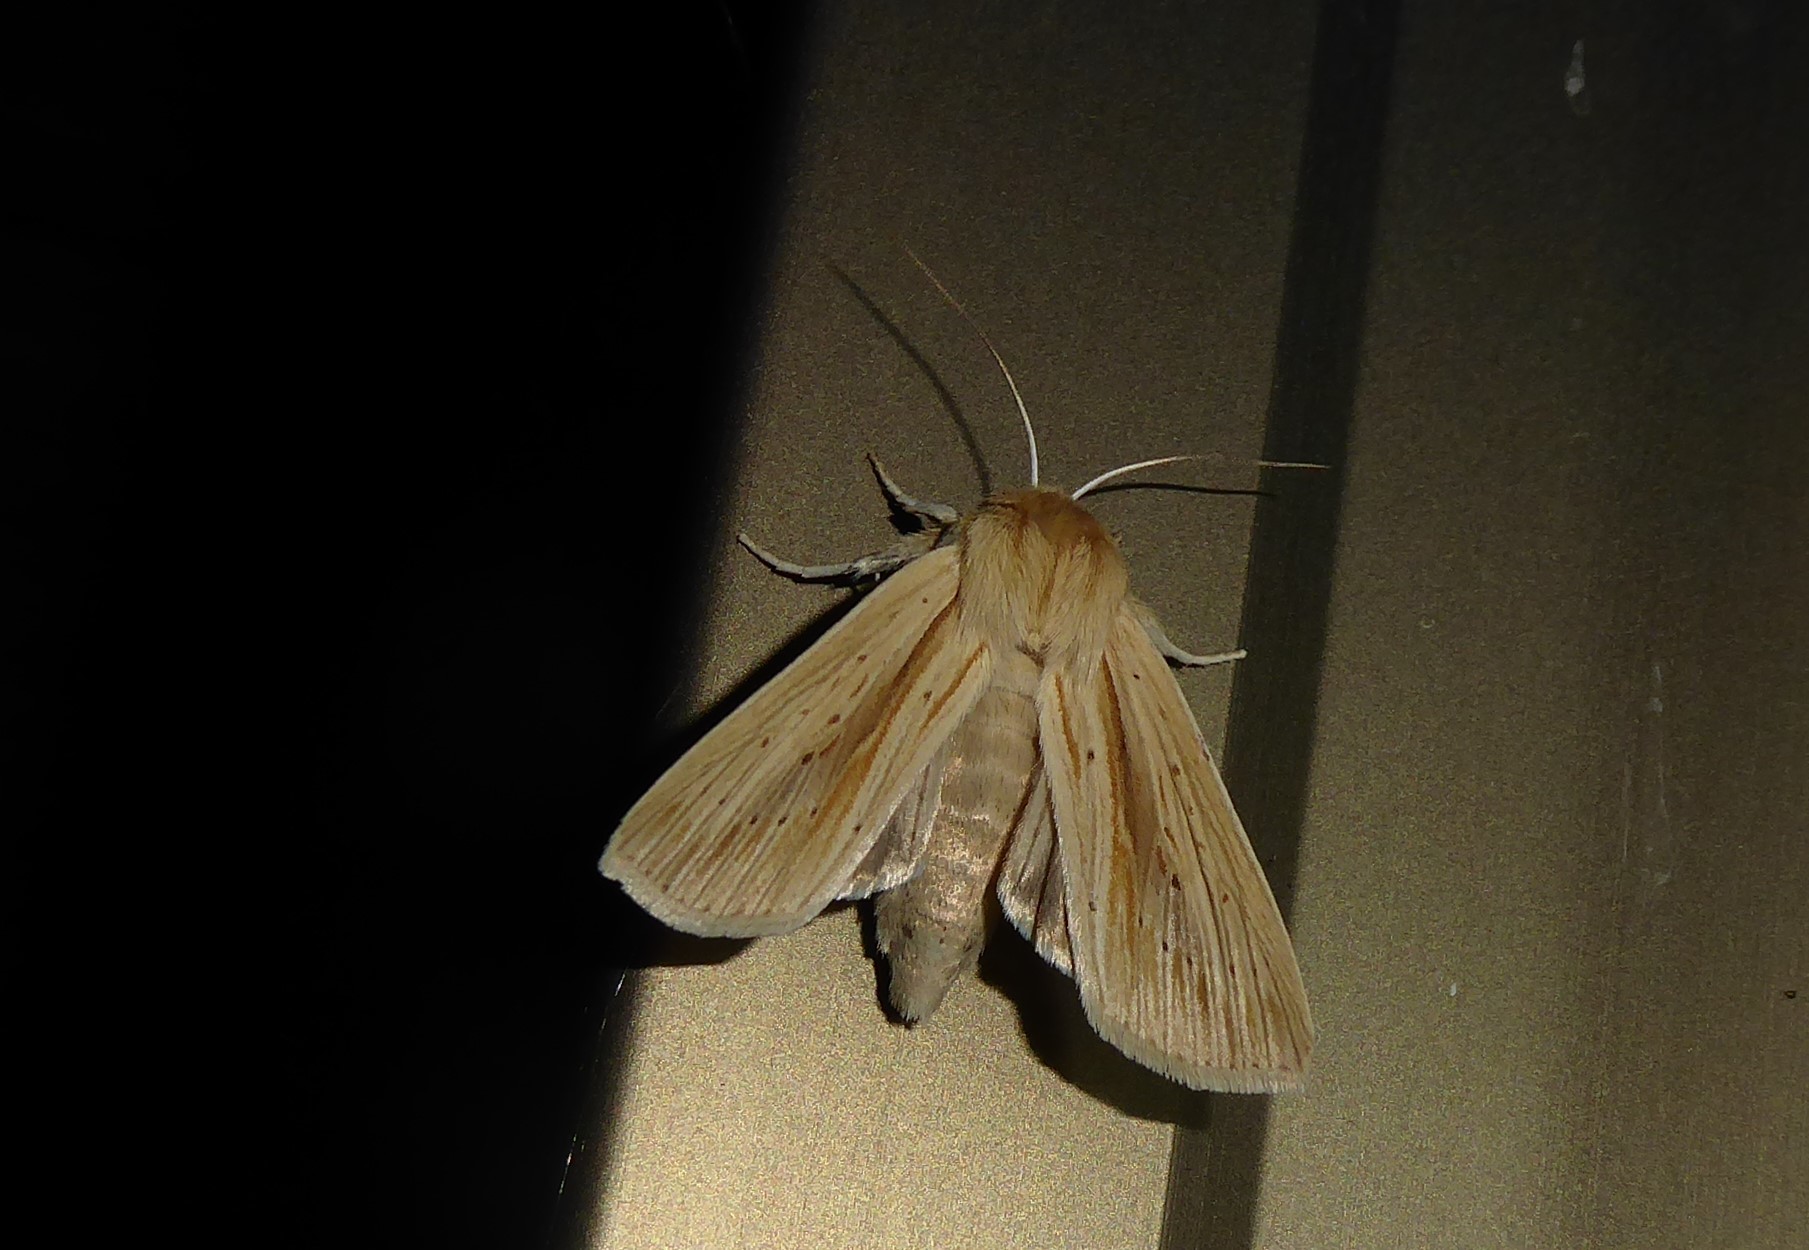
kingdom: Animalia
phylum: Arthropoda
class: Insecta
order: Lepidoptera
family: Noctuidae
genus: Ichneutica
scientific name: Ichneutica semivittata
